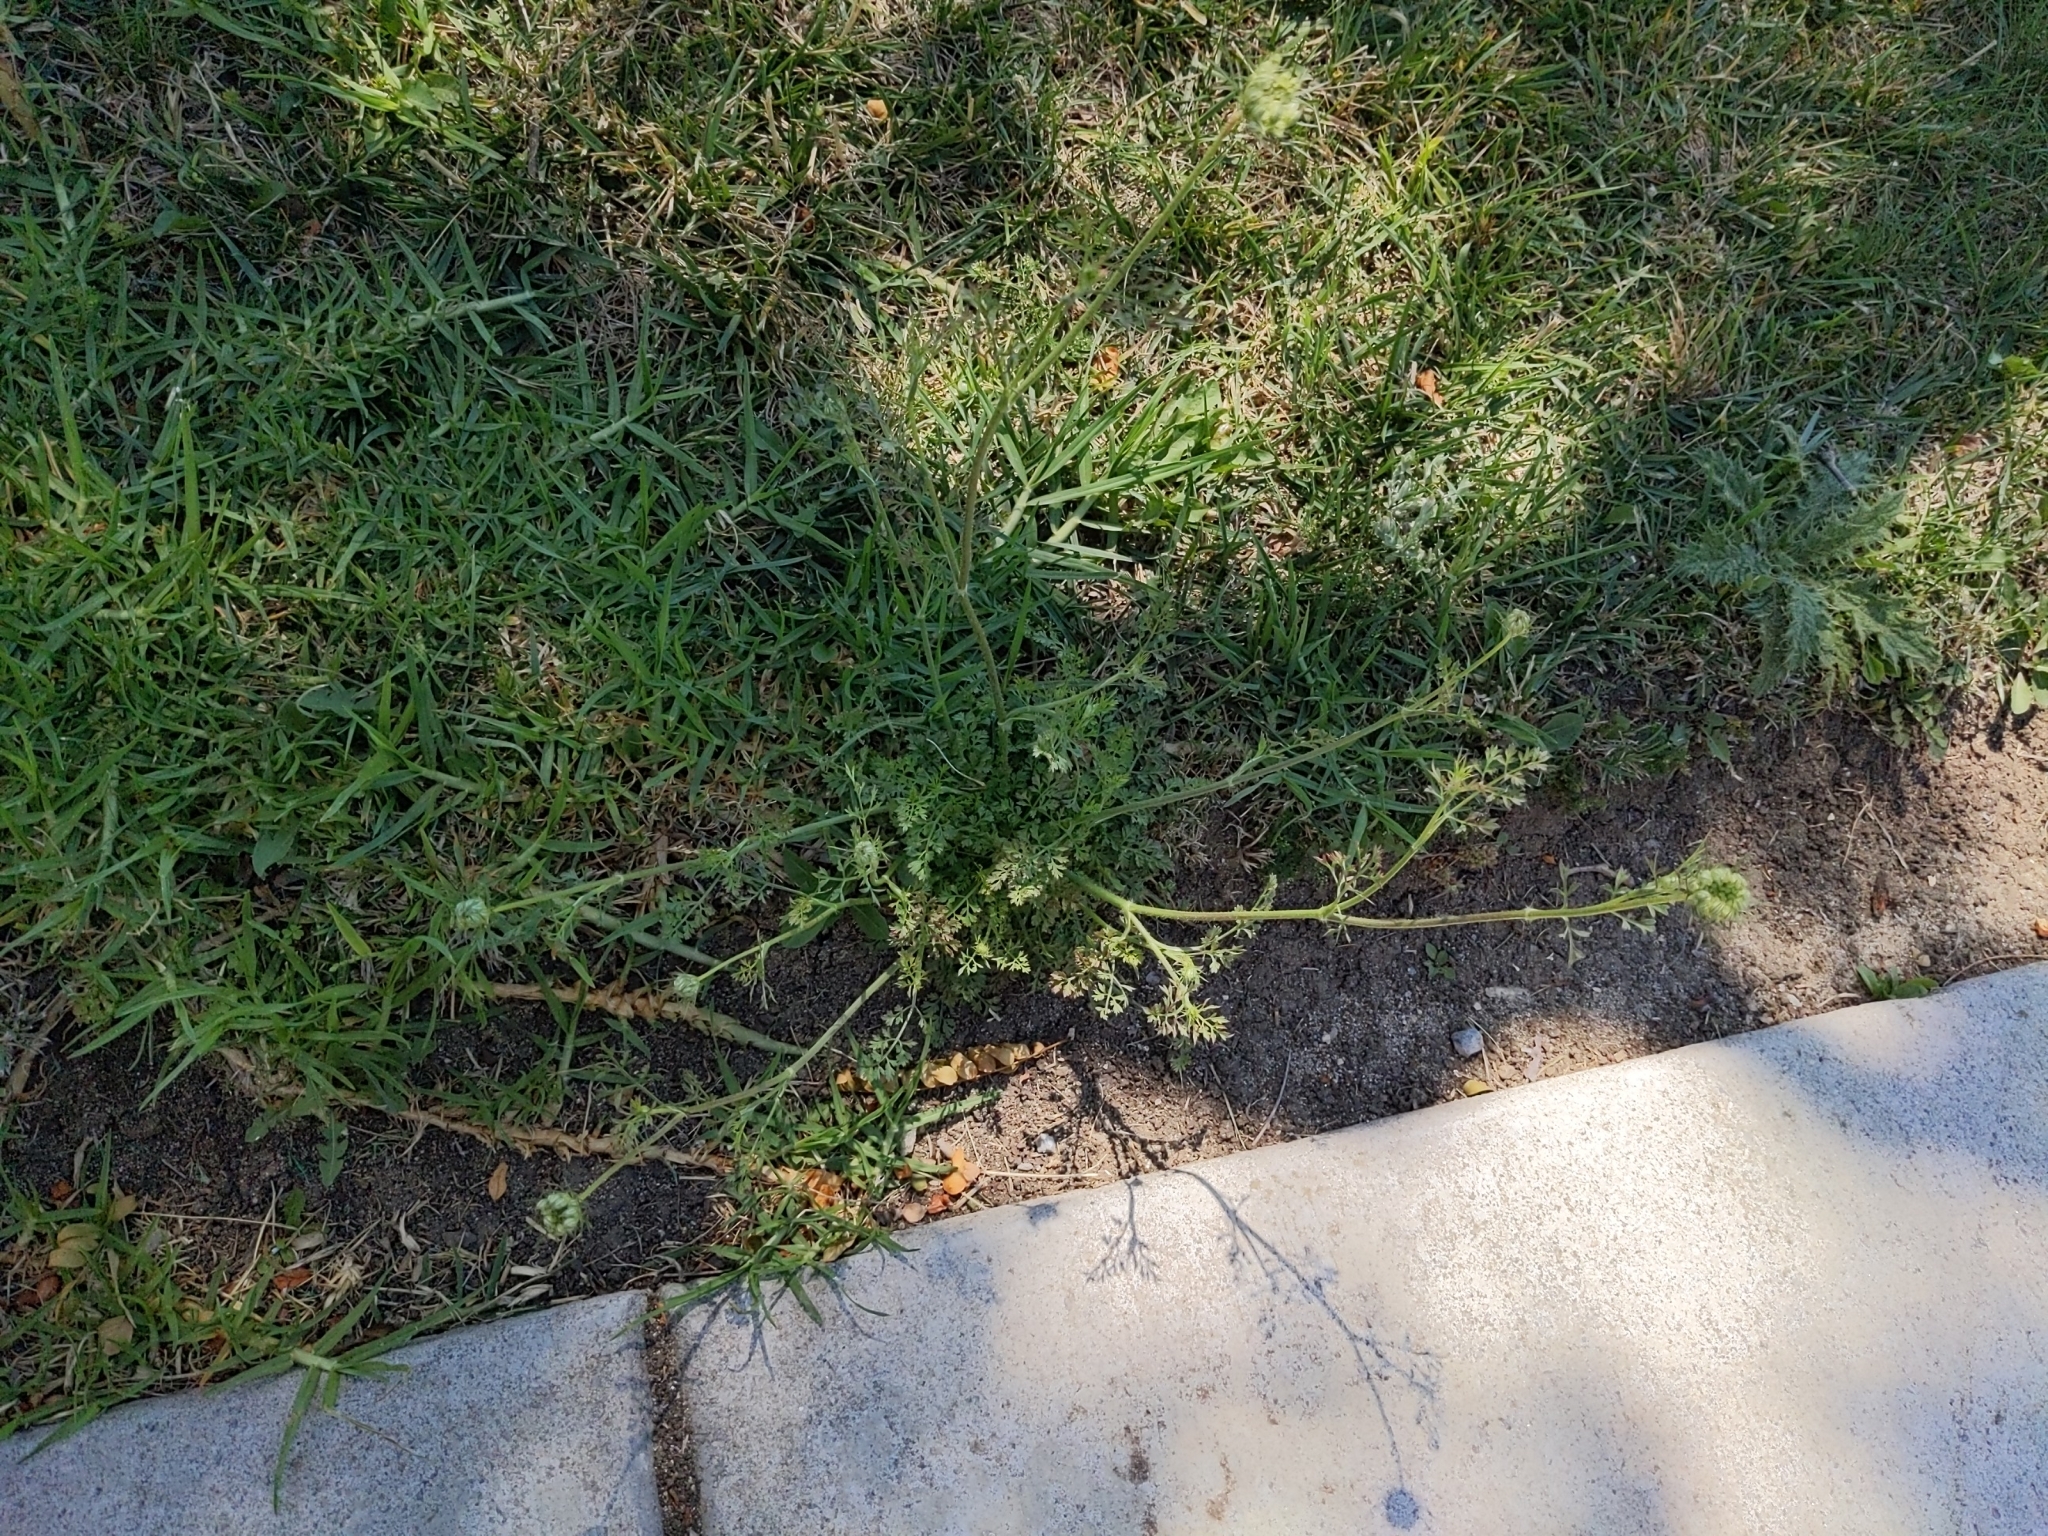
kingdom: Plantae
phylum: Tracheophyta
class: Magnoliopsida
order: Apiales
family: Apiaceae
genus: Daucus
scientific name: Daucus carota
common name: Wild carrot
